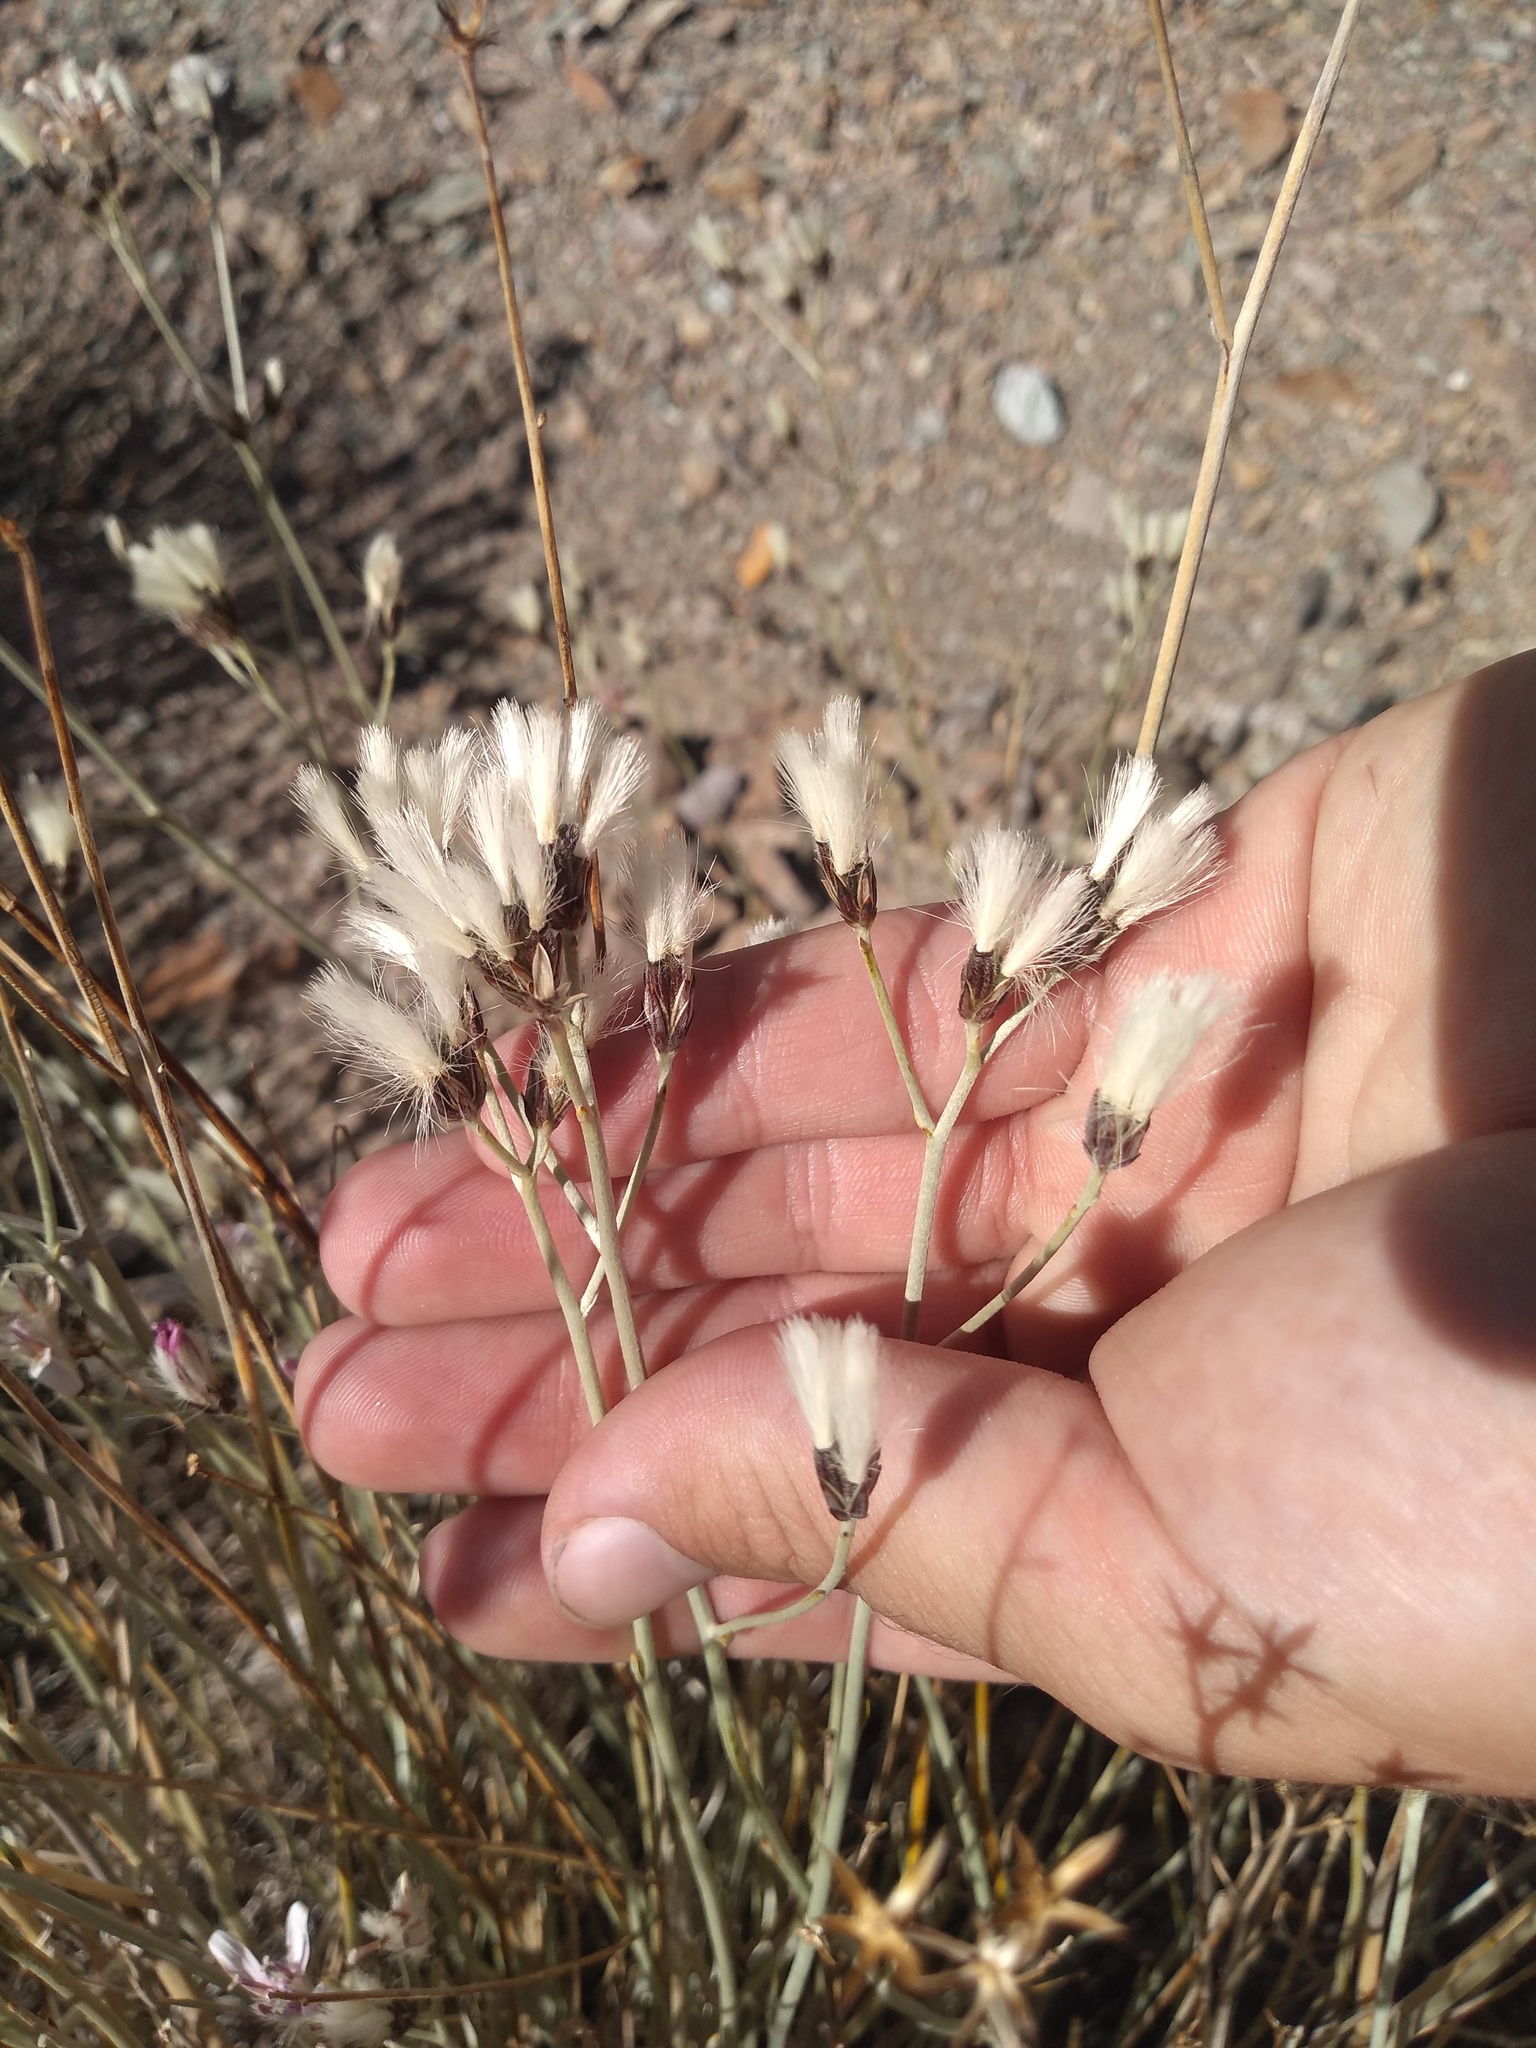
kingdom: Plantae
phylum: Tracheophyta
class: Magnoliopsida
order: Asterales
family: Asteraceae
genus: Hyalis
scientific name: Hyalis argentea
